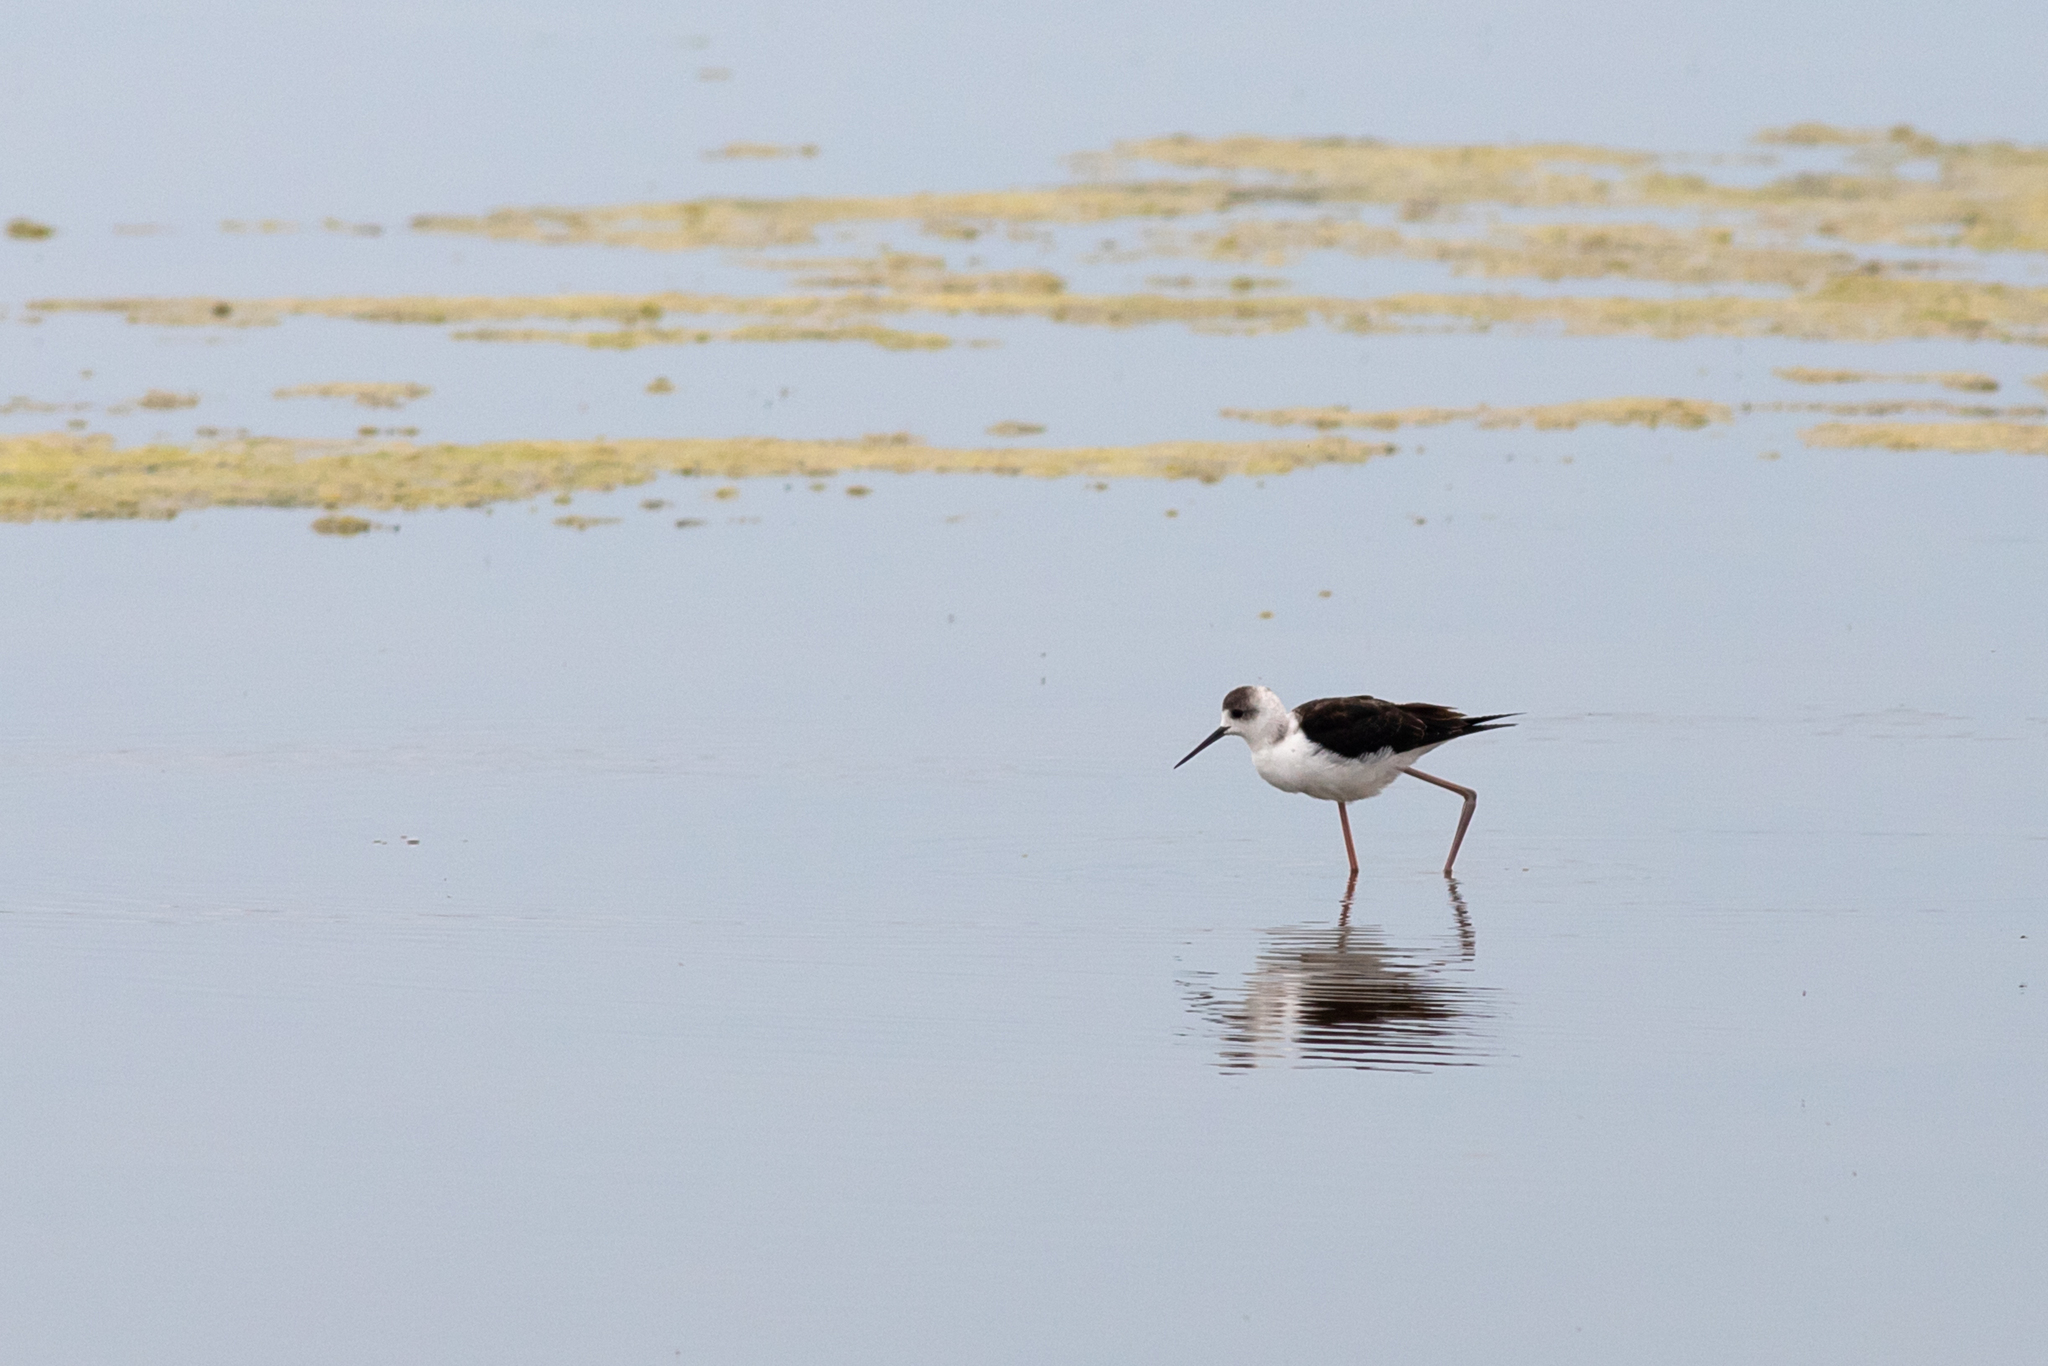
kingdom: Animalia
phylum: Chordata
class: Aves
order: Charadriiformes
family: Recurvirostridae
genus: Himantopus
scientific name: Himantopus leucocephalus
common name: White-headed stilt
